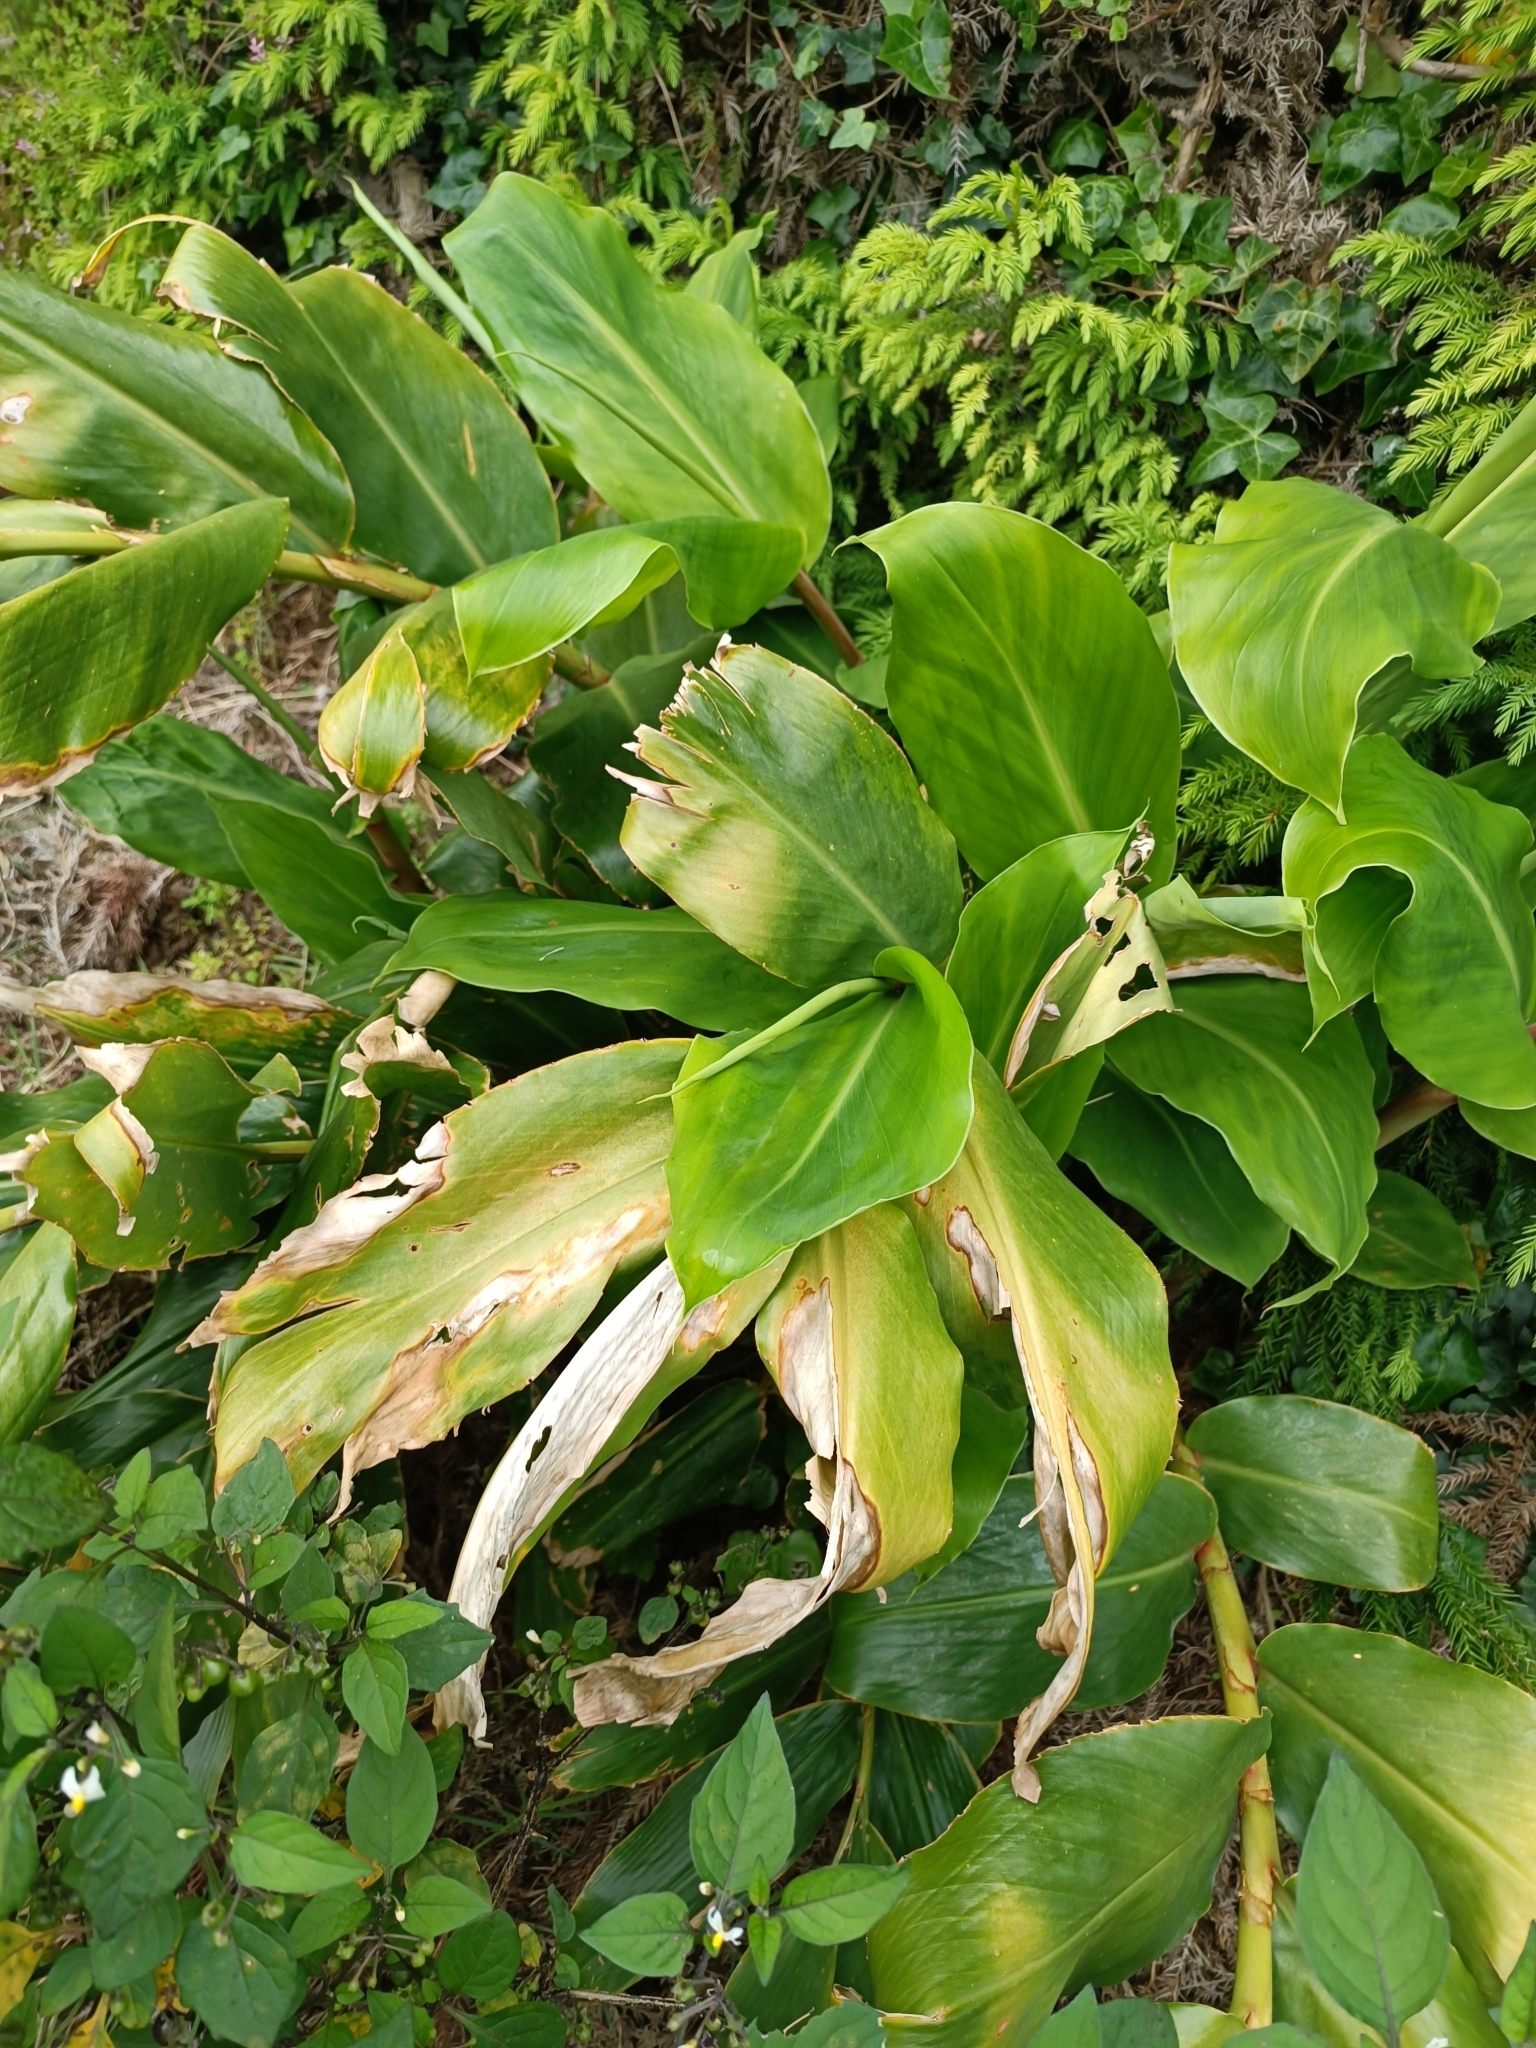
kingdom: Plantae
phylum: Tracheophyta
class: Liliopsida
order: Zingiberales
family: Zingiberaceae
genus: Hedychium
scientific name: Hedychium gardnerianum
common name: Himalayan ginger
